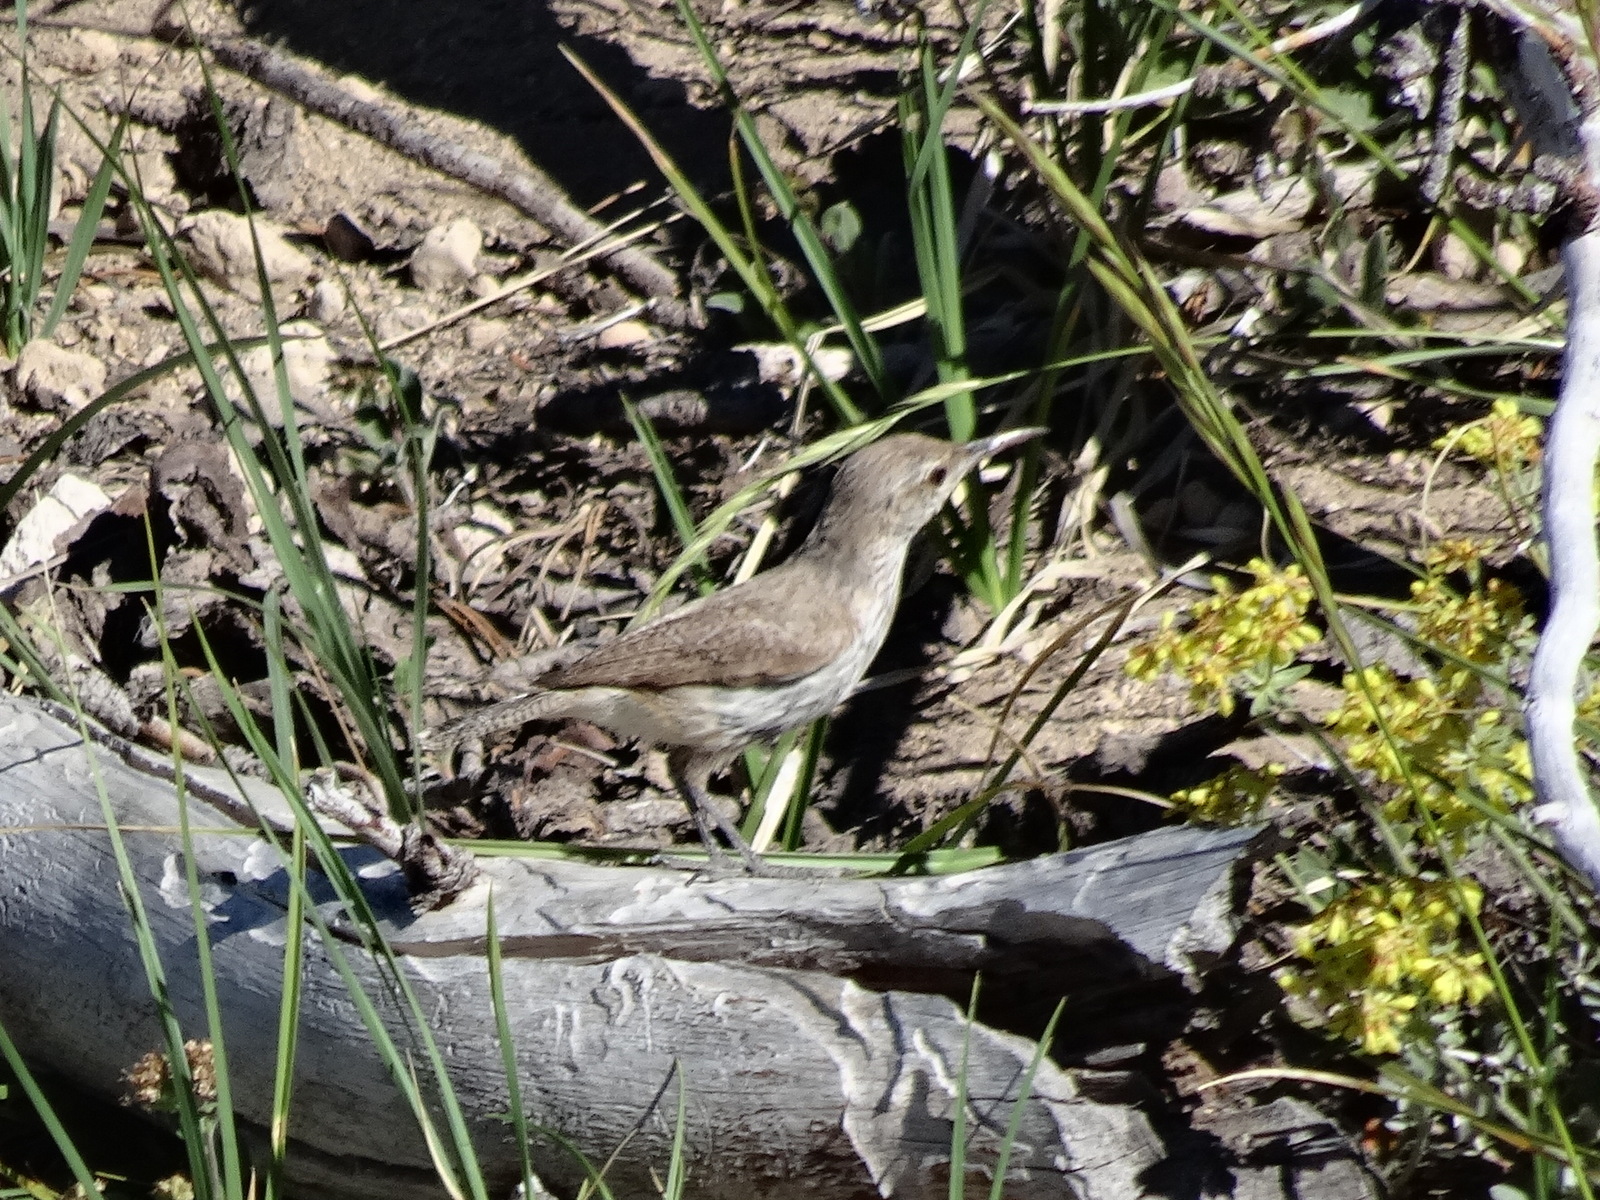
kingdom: Animalia
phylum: Chordata
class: Aves
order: Passeriformes
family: Troglodytidae
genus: Salpinctes
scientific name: Salpinctes obsoletus
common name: Rock wren
